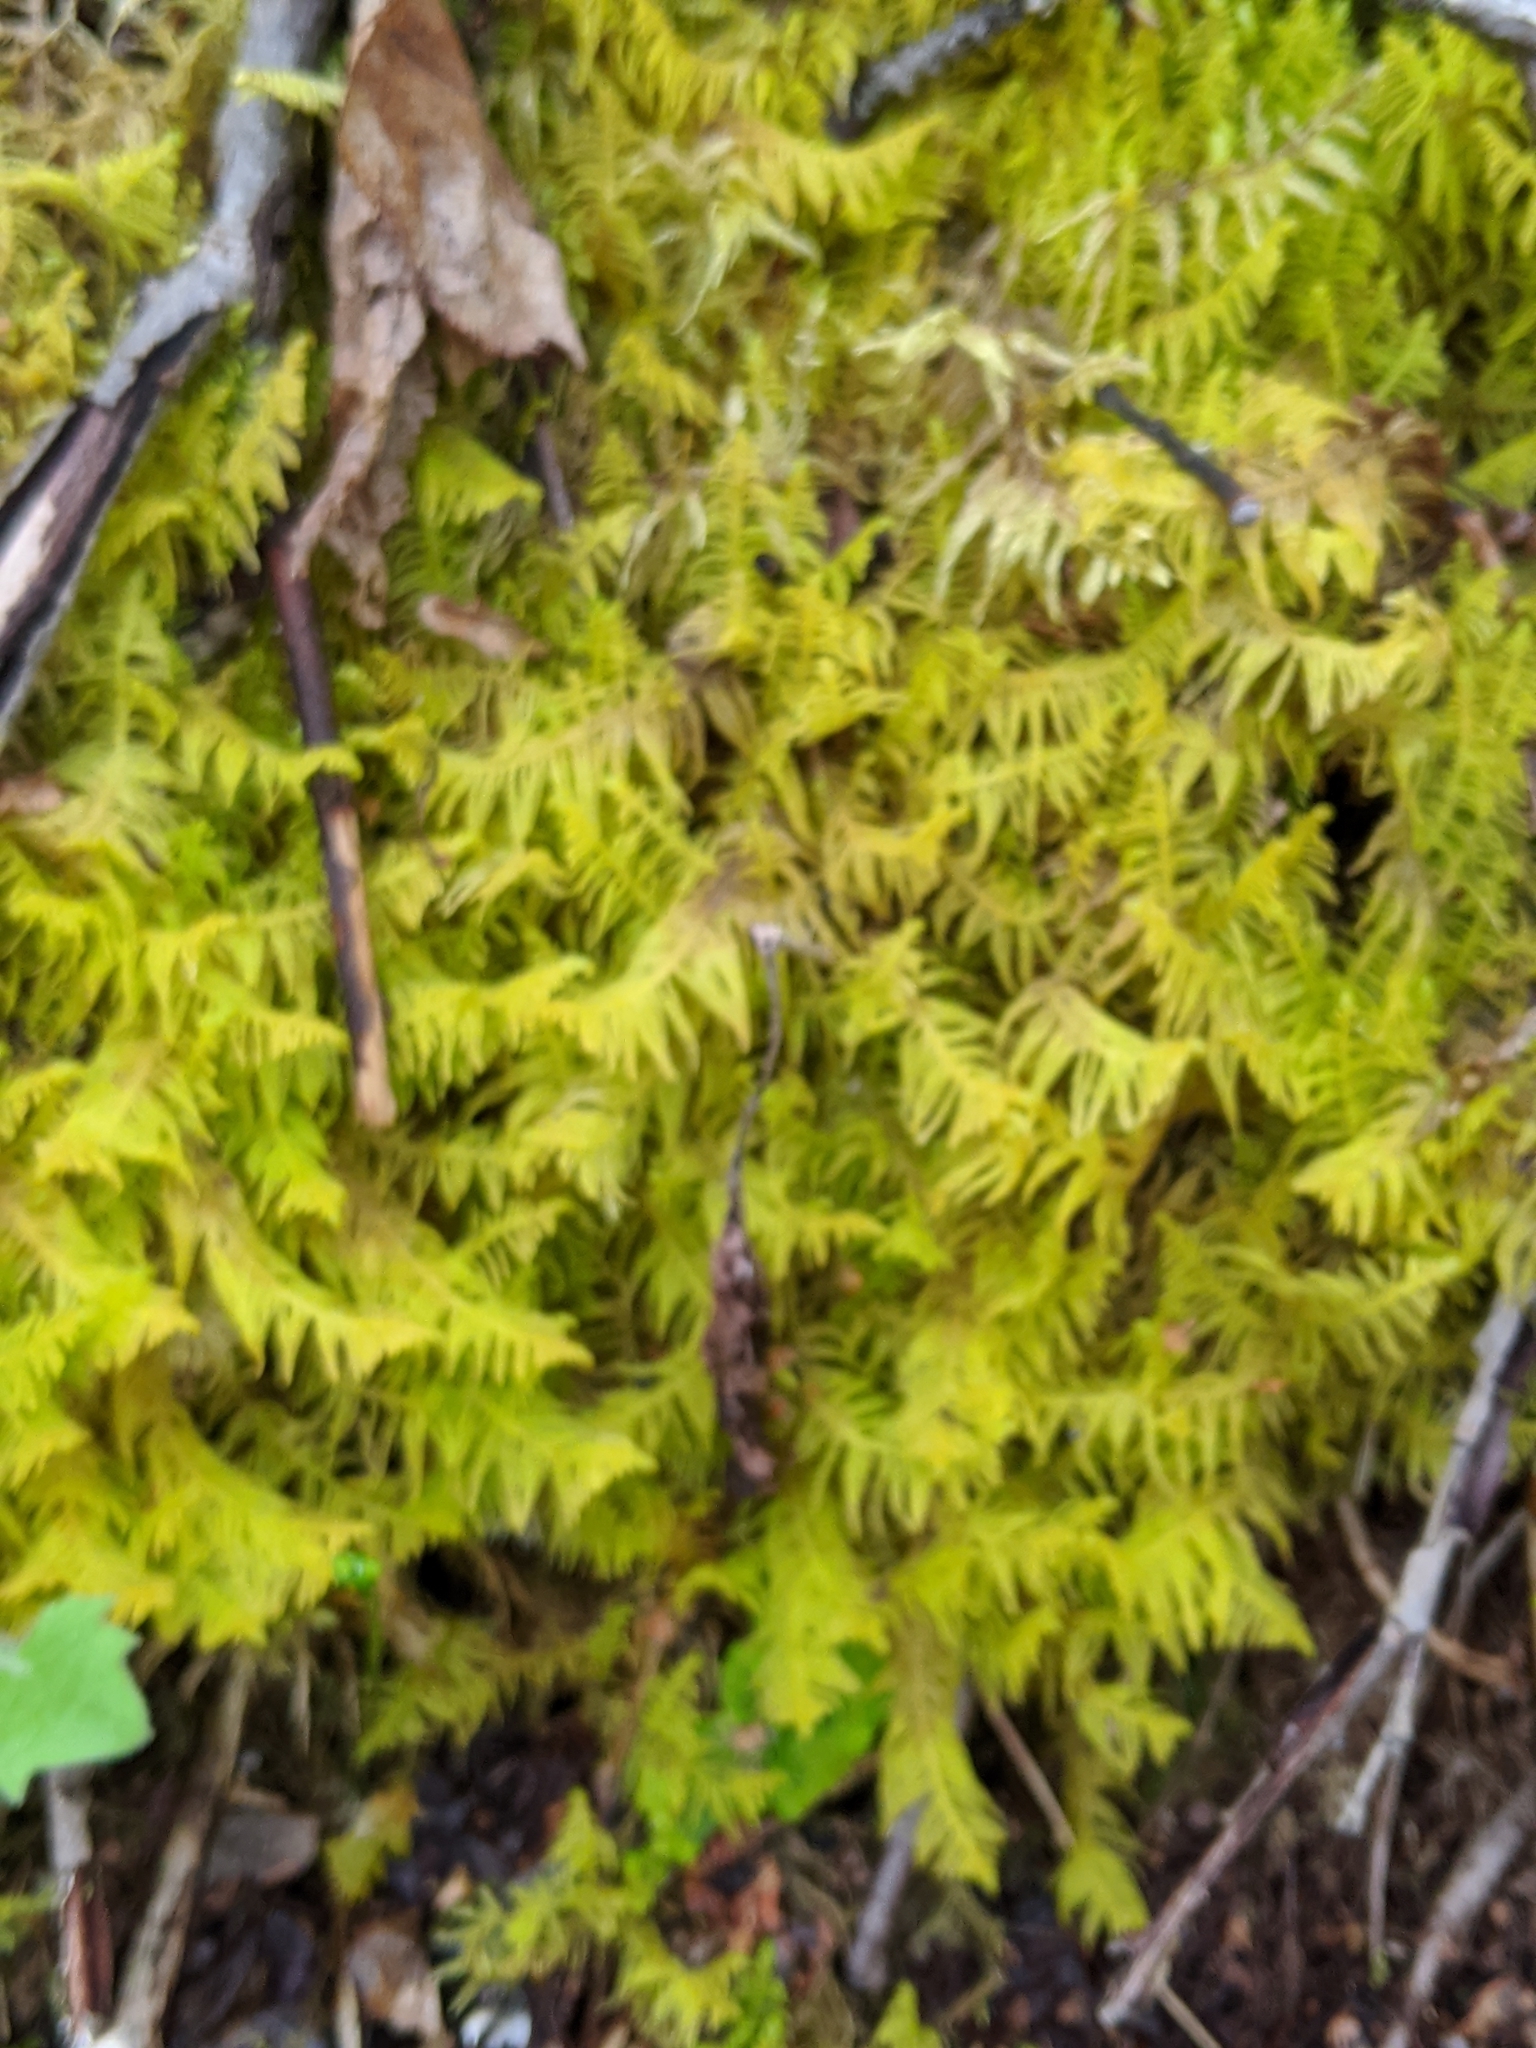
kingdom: Plantae
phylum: Bryophyta
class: Bryopsida
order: Hypnales
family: Pylaisiaceae
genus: Ptilium
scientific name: Ptilium crista-castrensis
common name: Knight's plume moss
